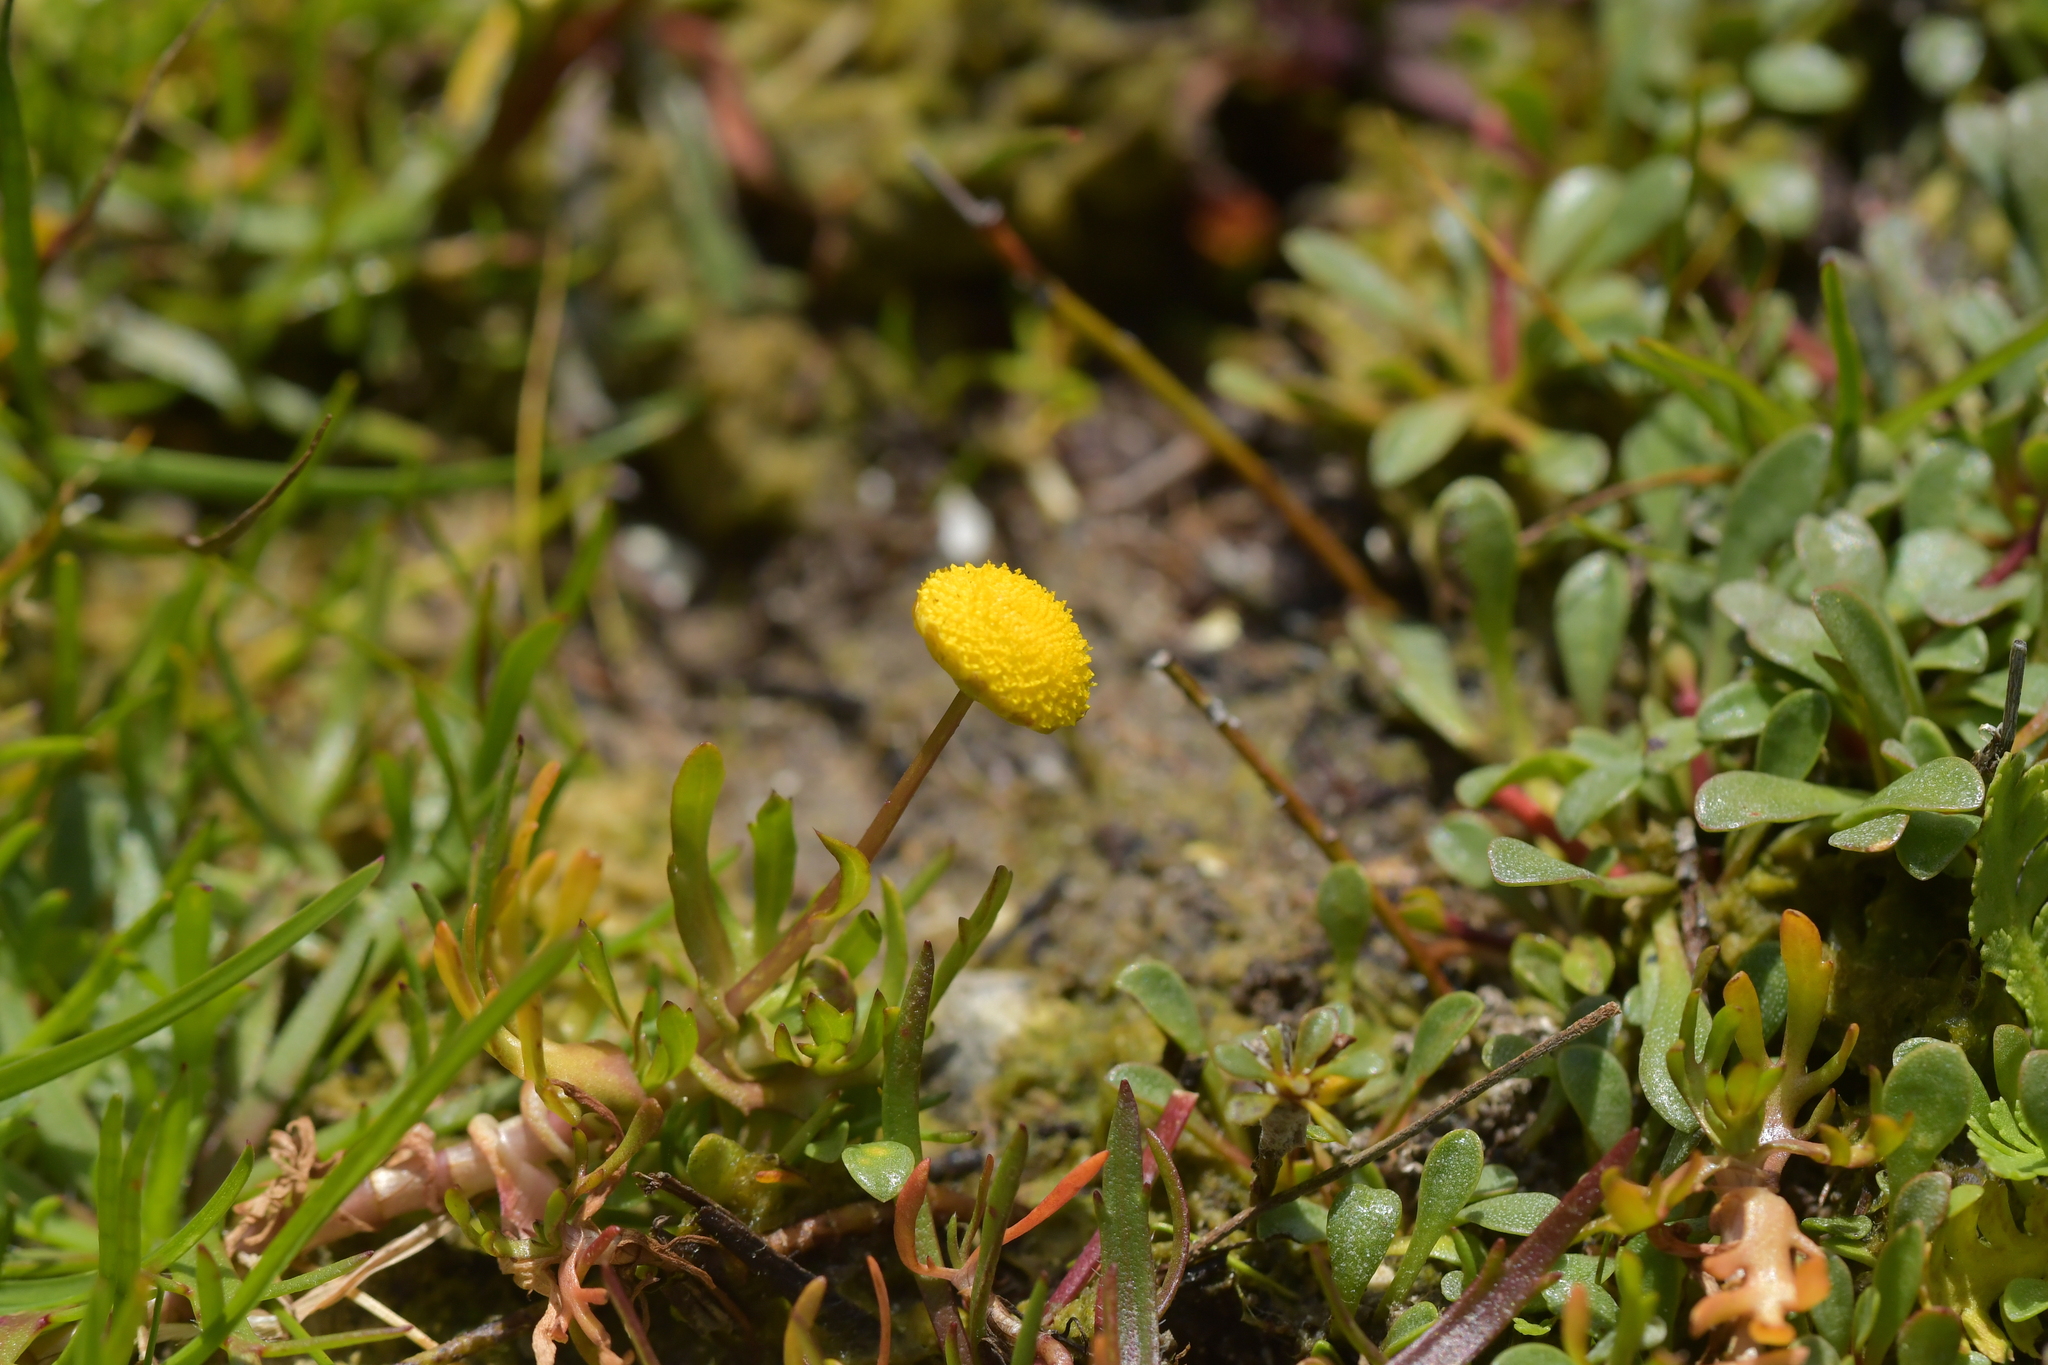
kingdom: Plantae
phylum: Tracheophyta
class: Magnoliopsida
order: Asterales
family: Asteraceae
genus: Cotula
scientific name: Cotula coronopifolia
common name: Buttonweed
